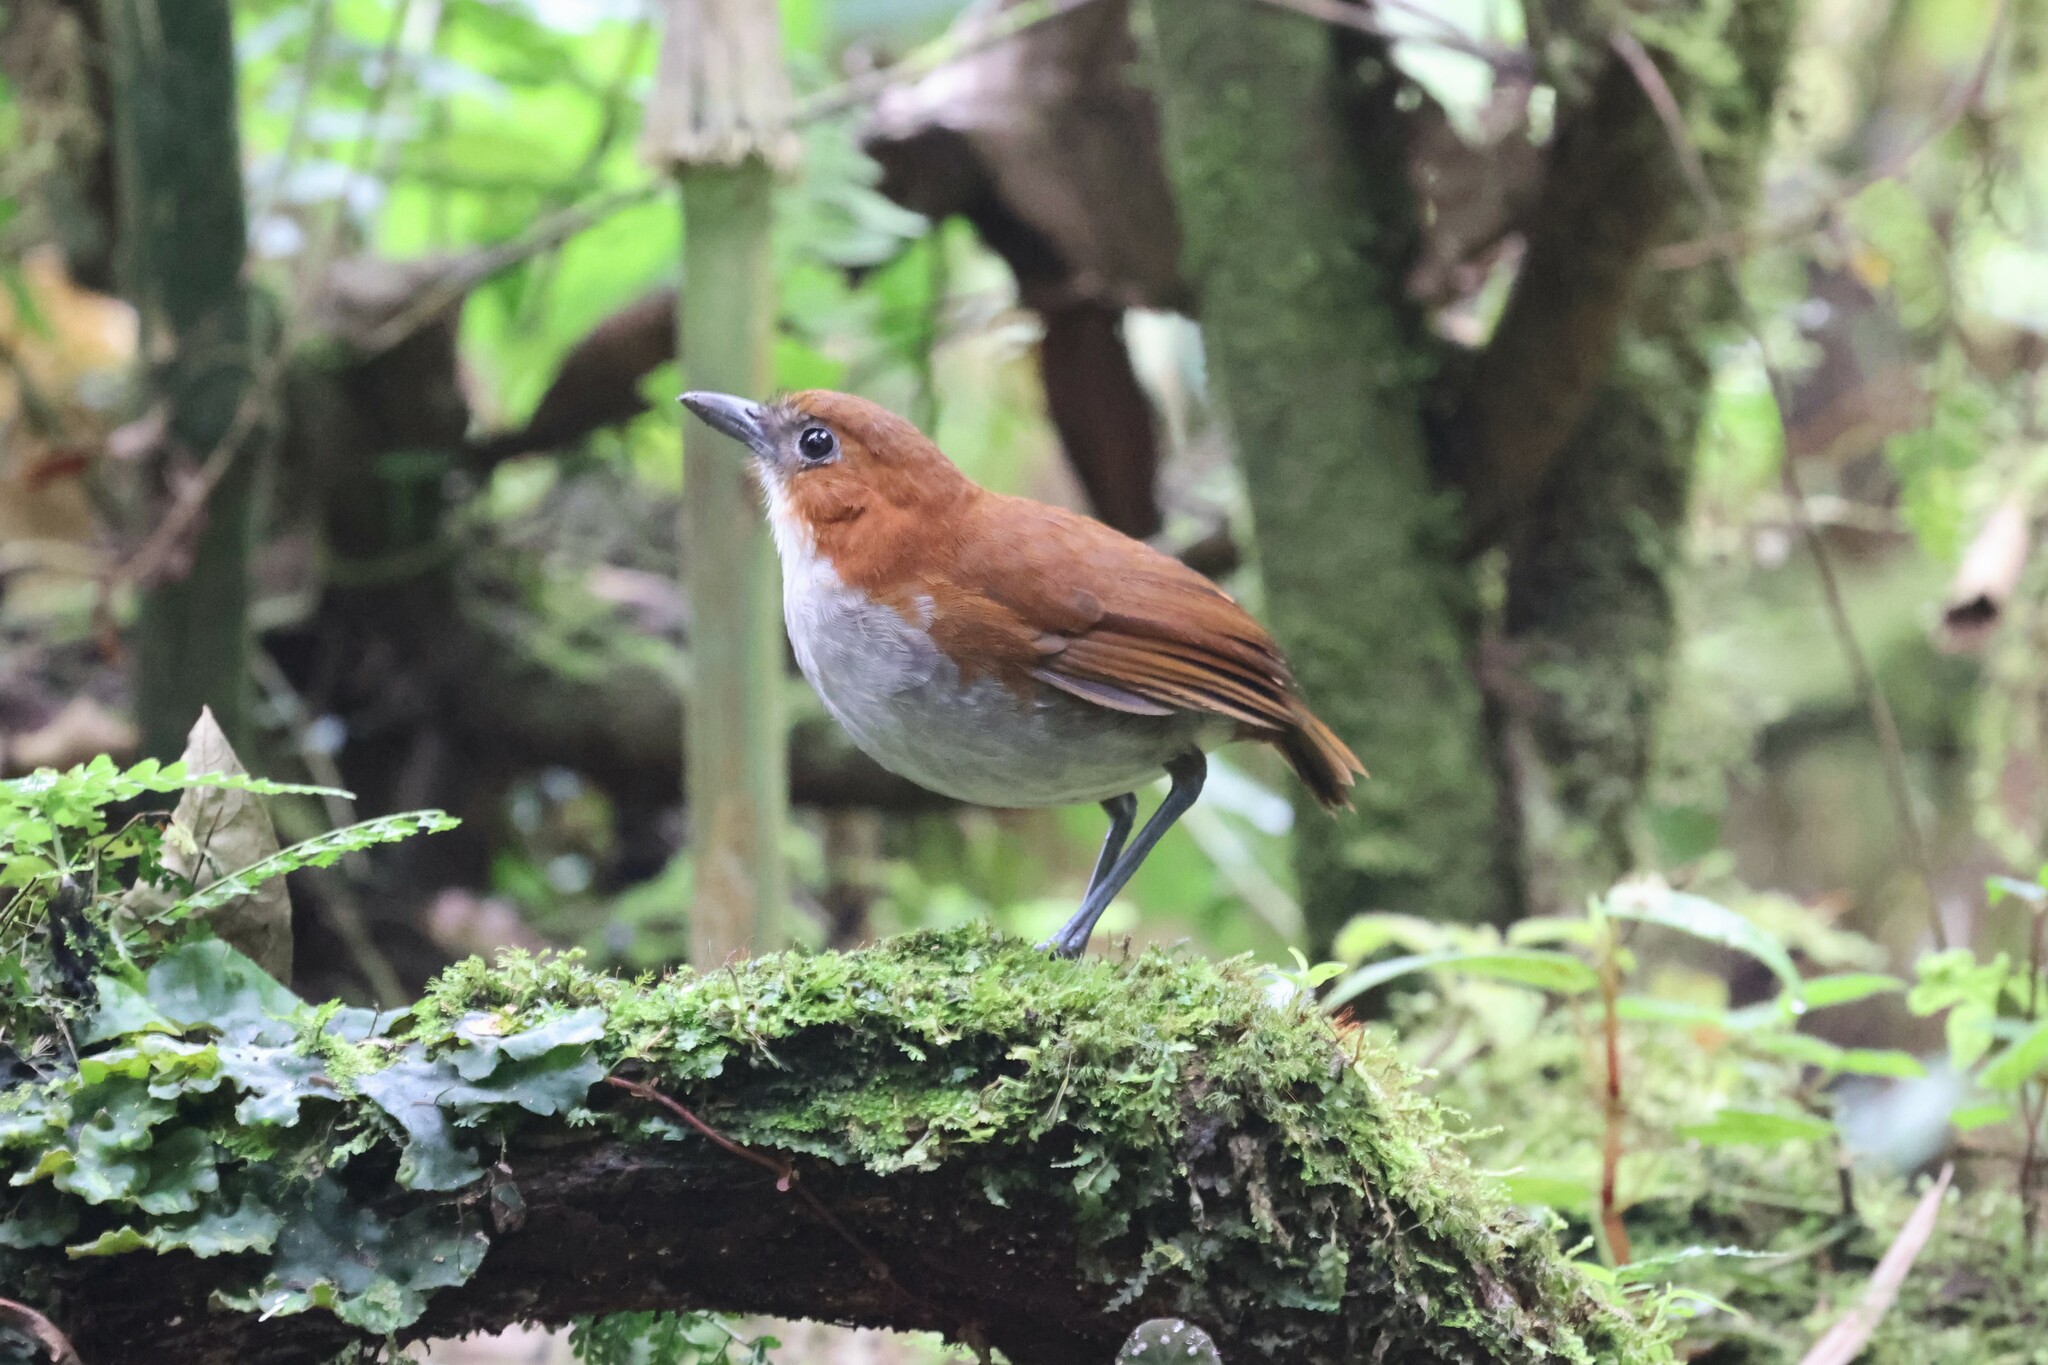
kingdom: Animalia
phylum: Chordata
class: Aves
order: Passeriformes
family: Grallariidae
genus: Grallaria
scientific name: Grallaria hypoleuca
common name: White-bellied antpitta
